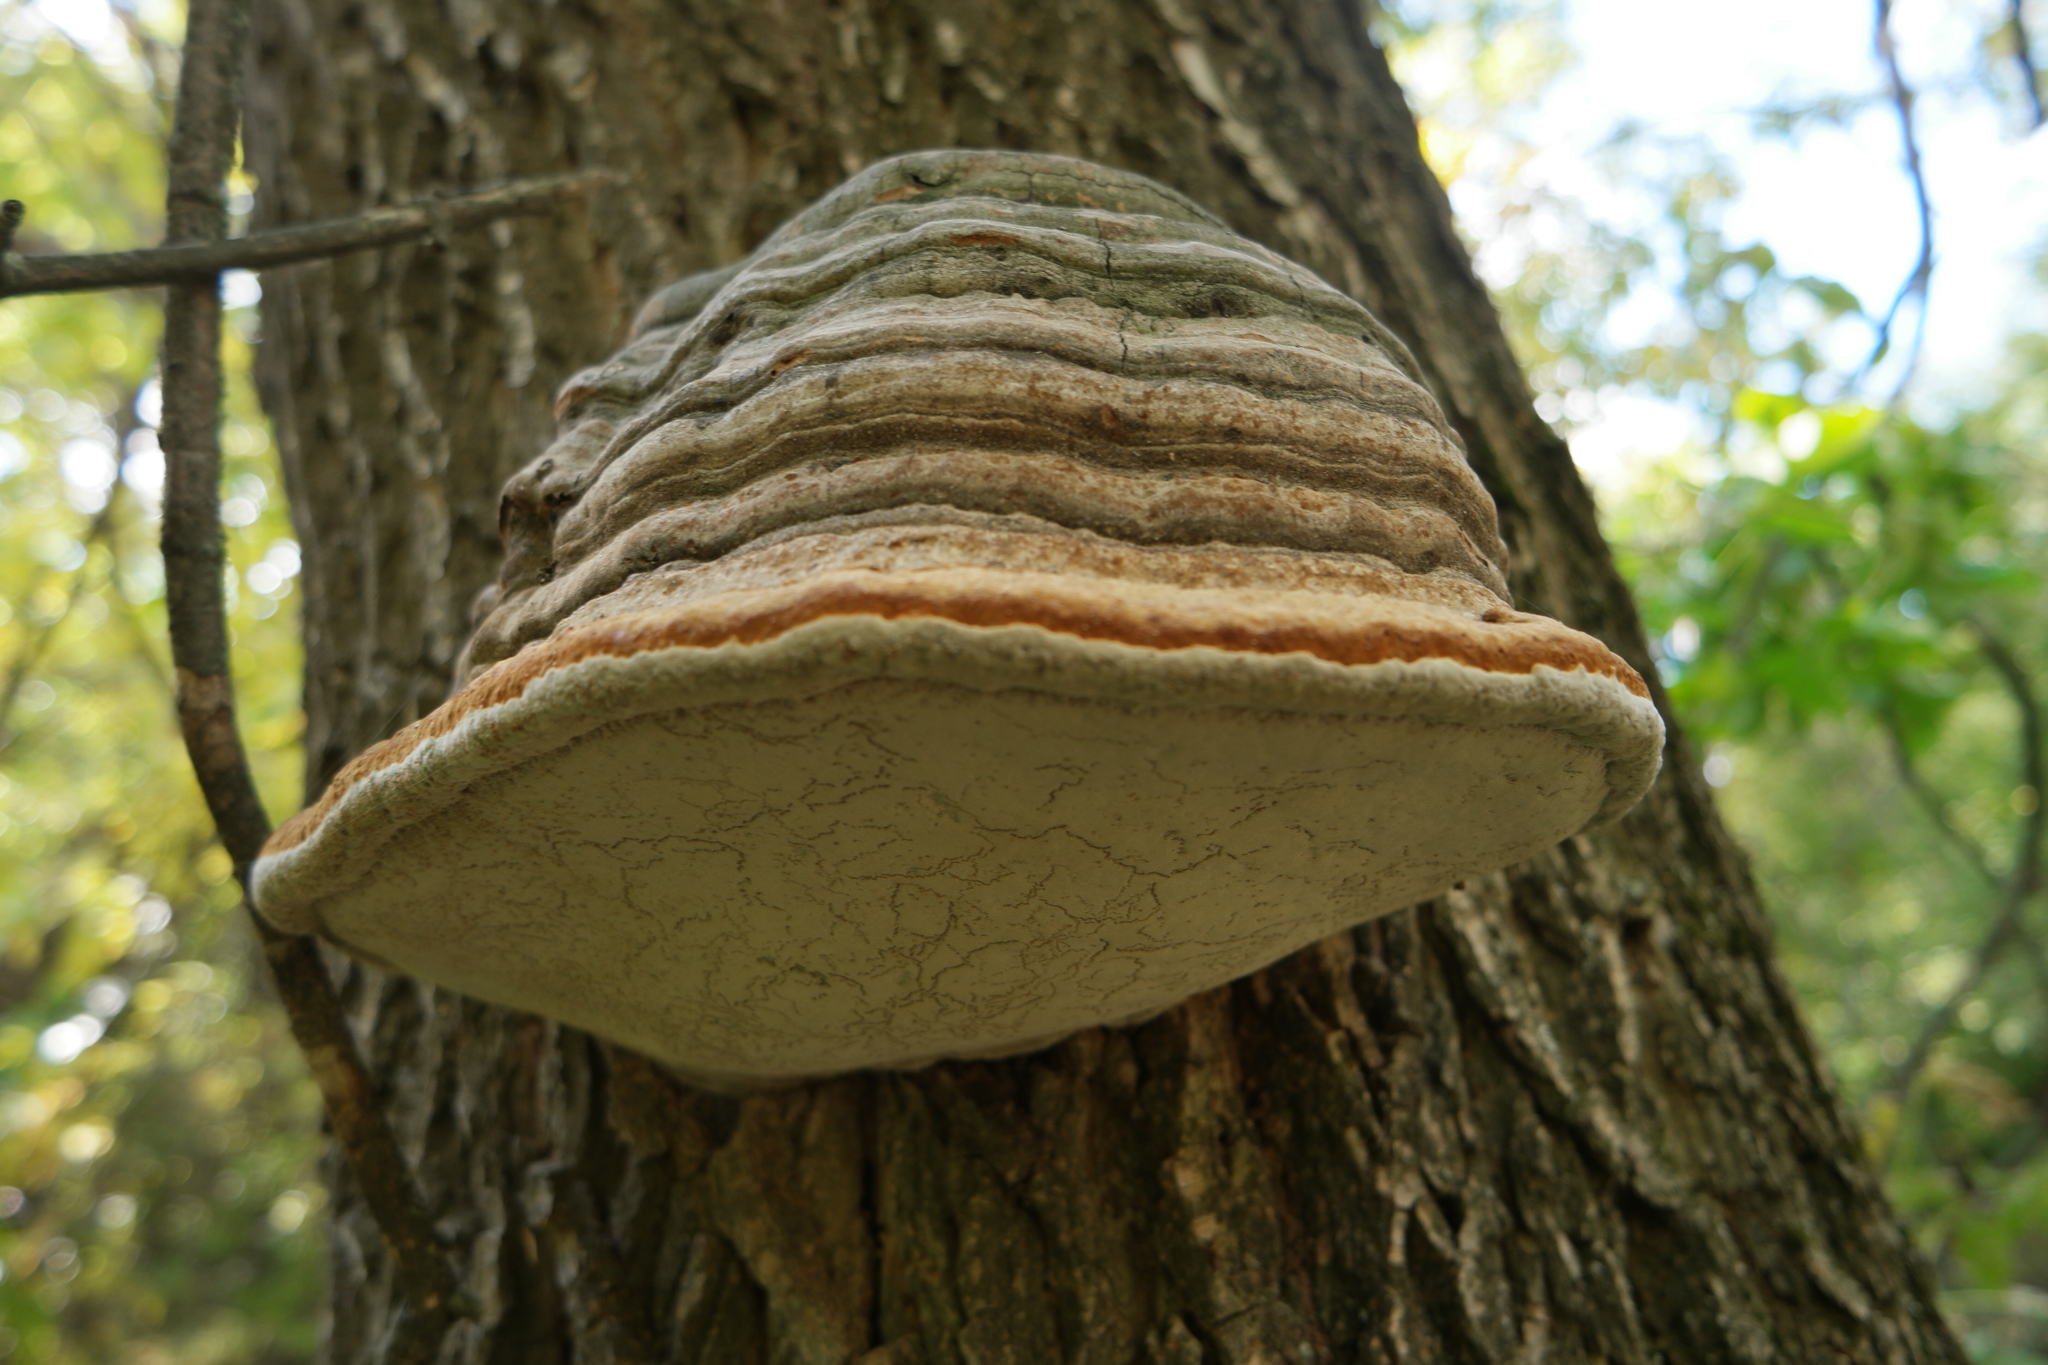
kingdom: Fungi
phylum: Basidiomycota
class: Agaricomycetes
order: Polyporales
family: Polyporaceae
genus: Fomes
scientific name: Fomes fomentarius
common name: Hoof fungus
